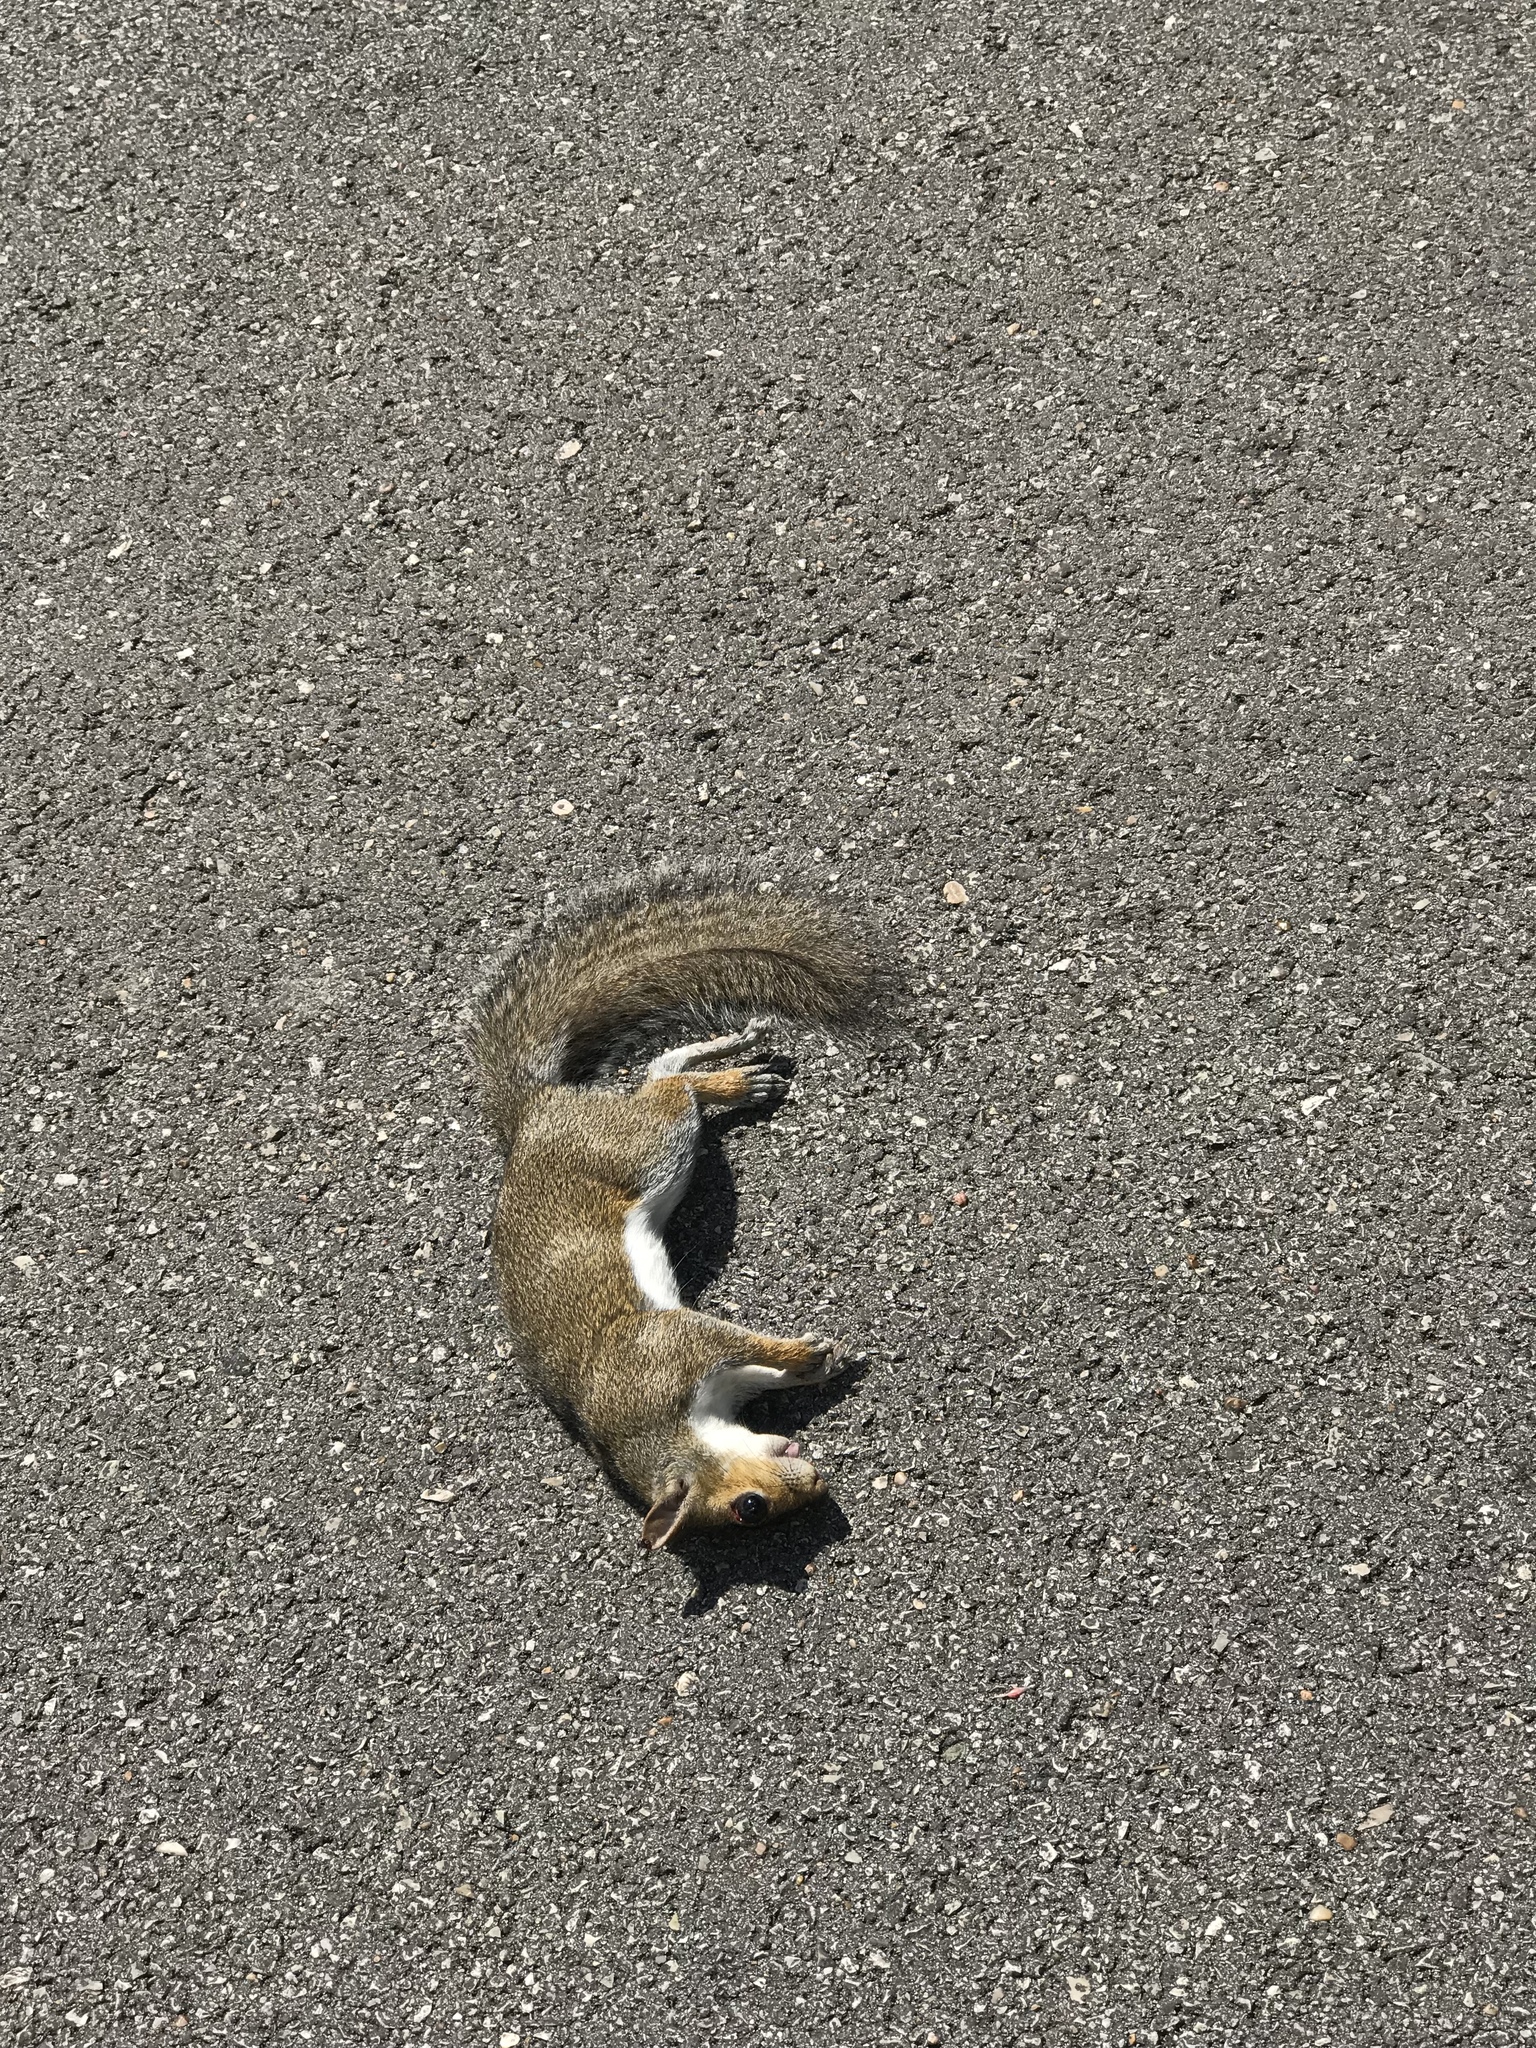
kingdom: Animalia
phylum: Chordata
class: Mammalia
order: Rodentia
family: Sciuridae
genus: Sciurus
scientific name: Sciurus carolinensis
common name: Eastern gray squirrel
